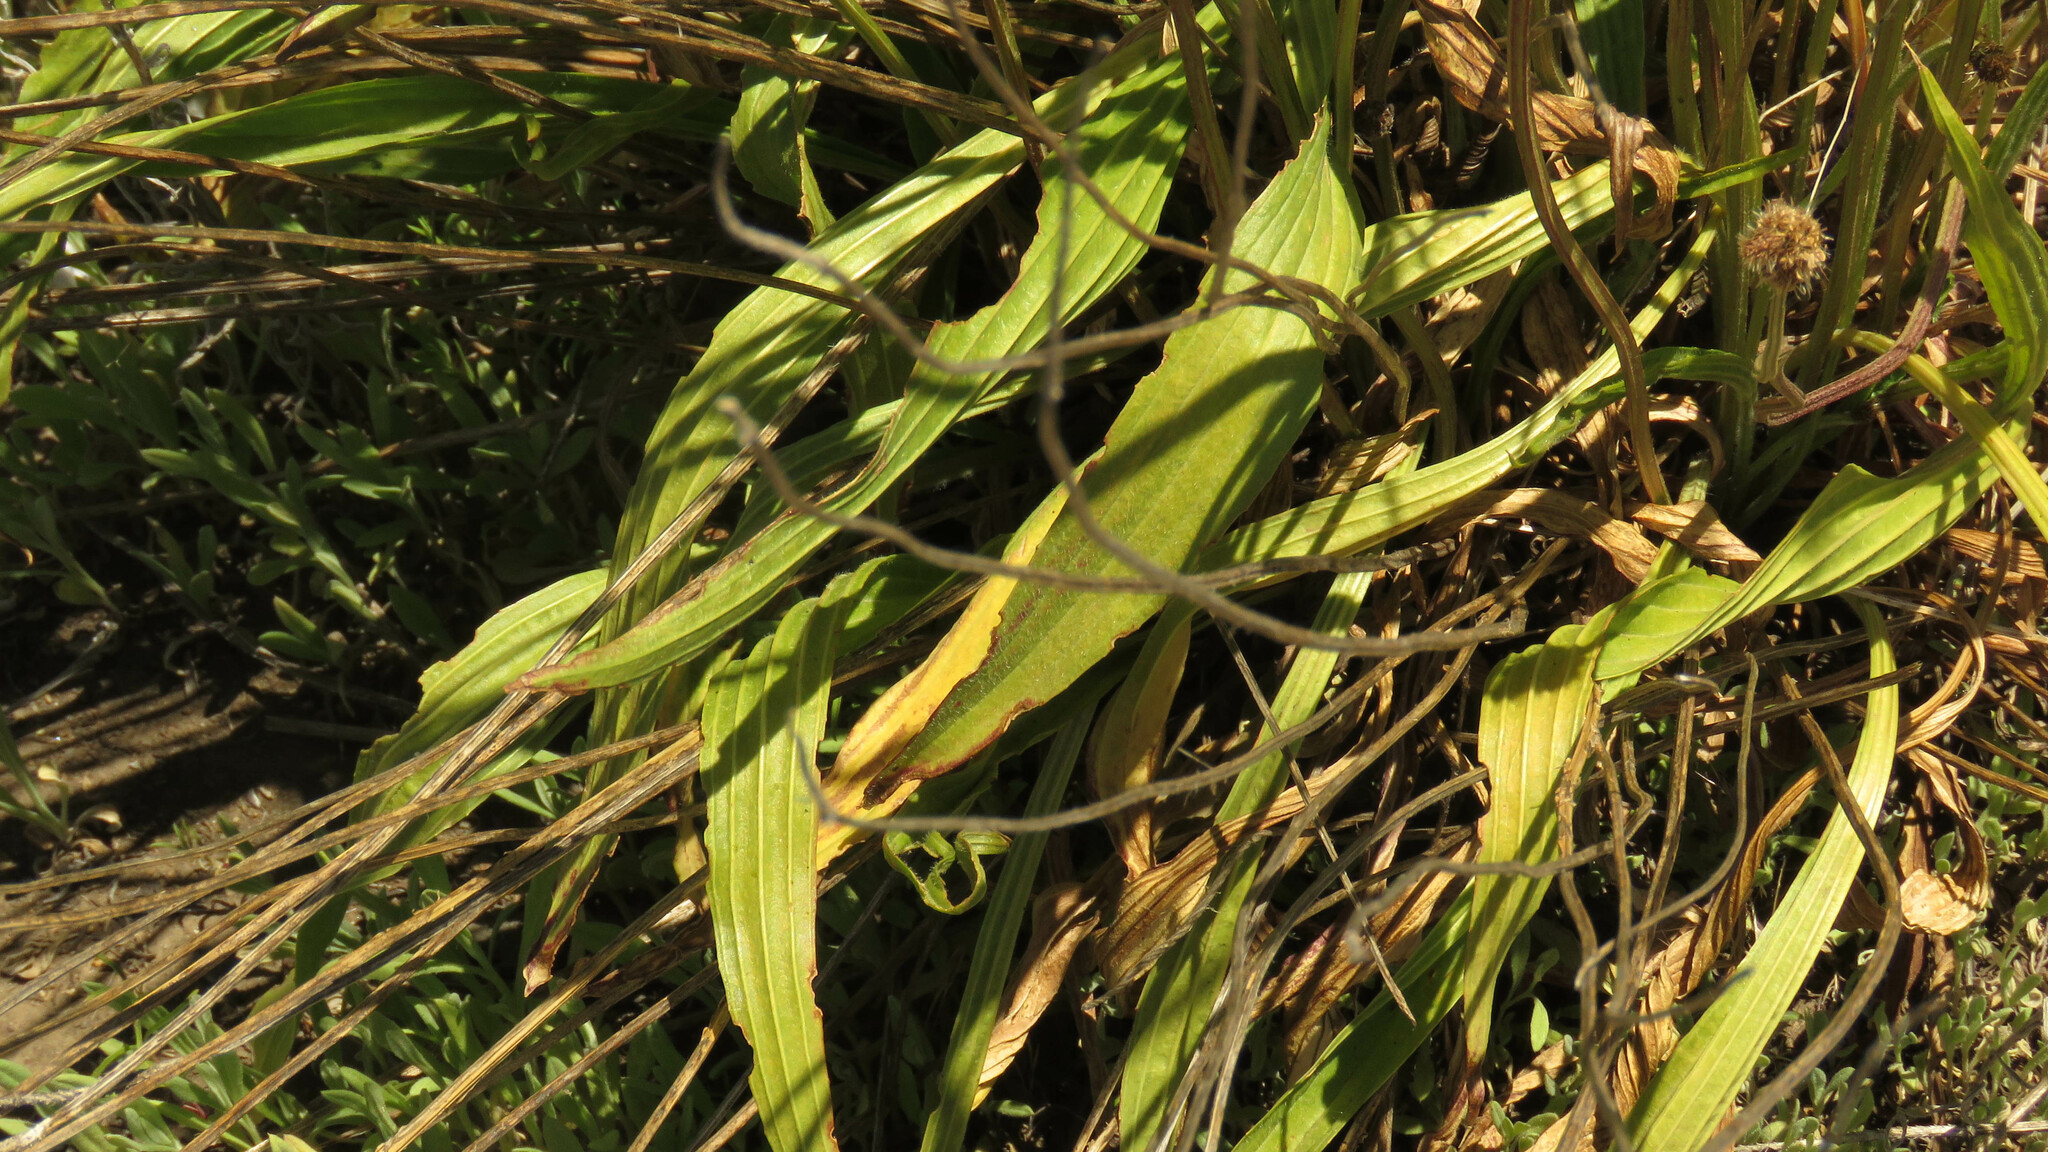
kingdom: Plantae
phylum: Tracheophyta
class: Magnoliopsida
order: Lamiales
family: Plantaginaceae
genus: Plantago
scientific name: Plantago lanceolata
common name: Ribwort plantain
